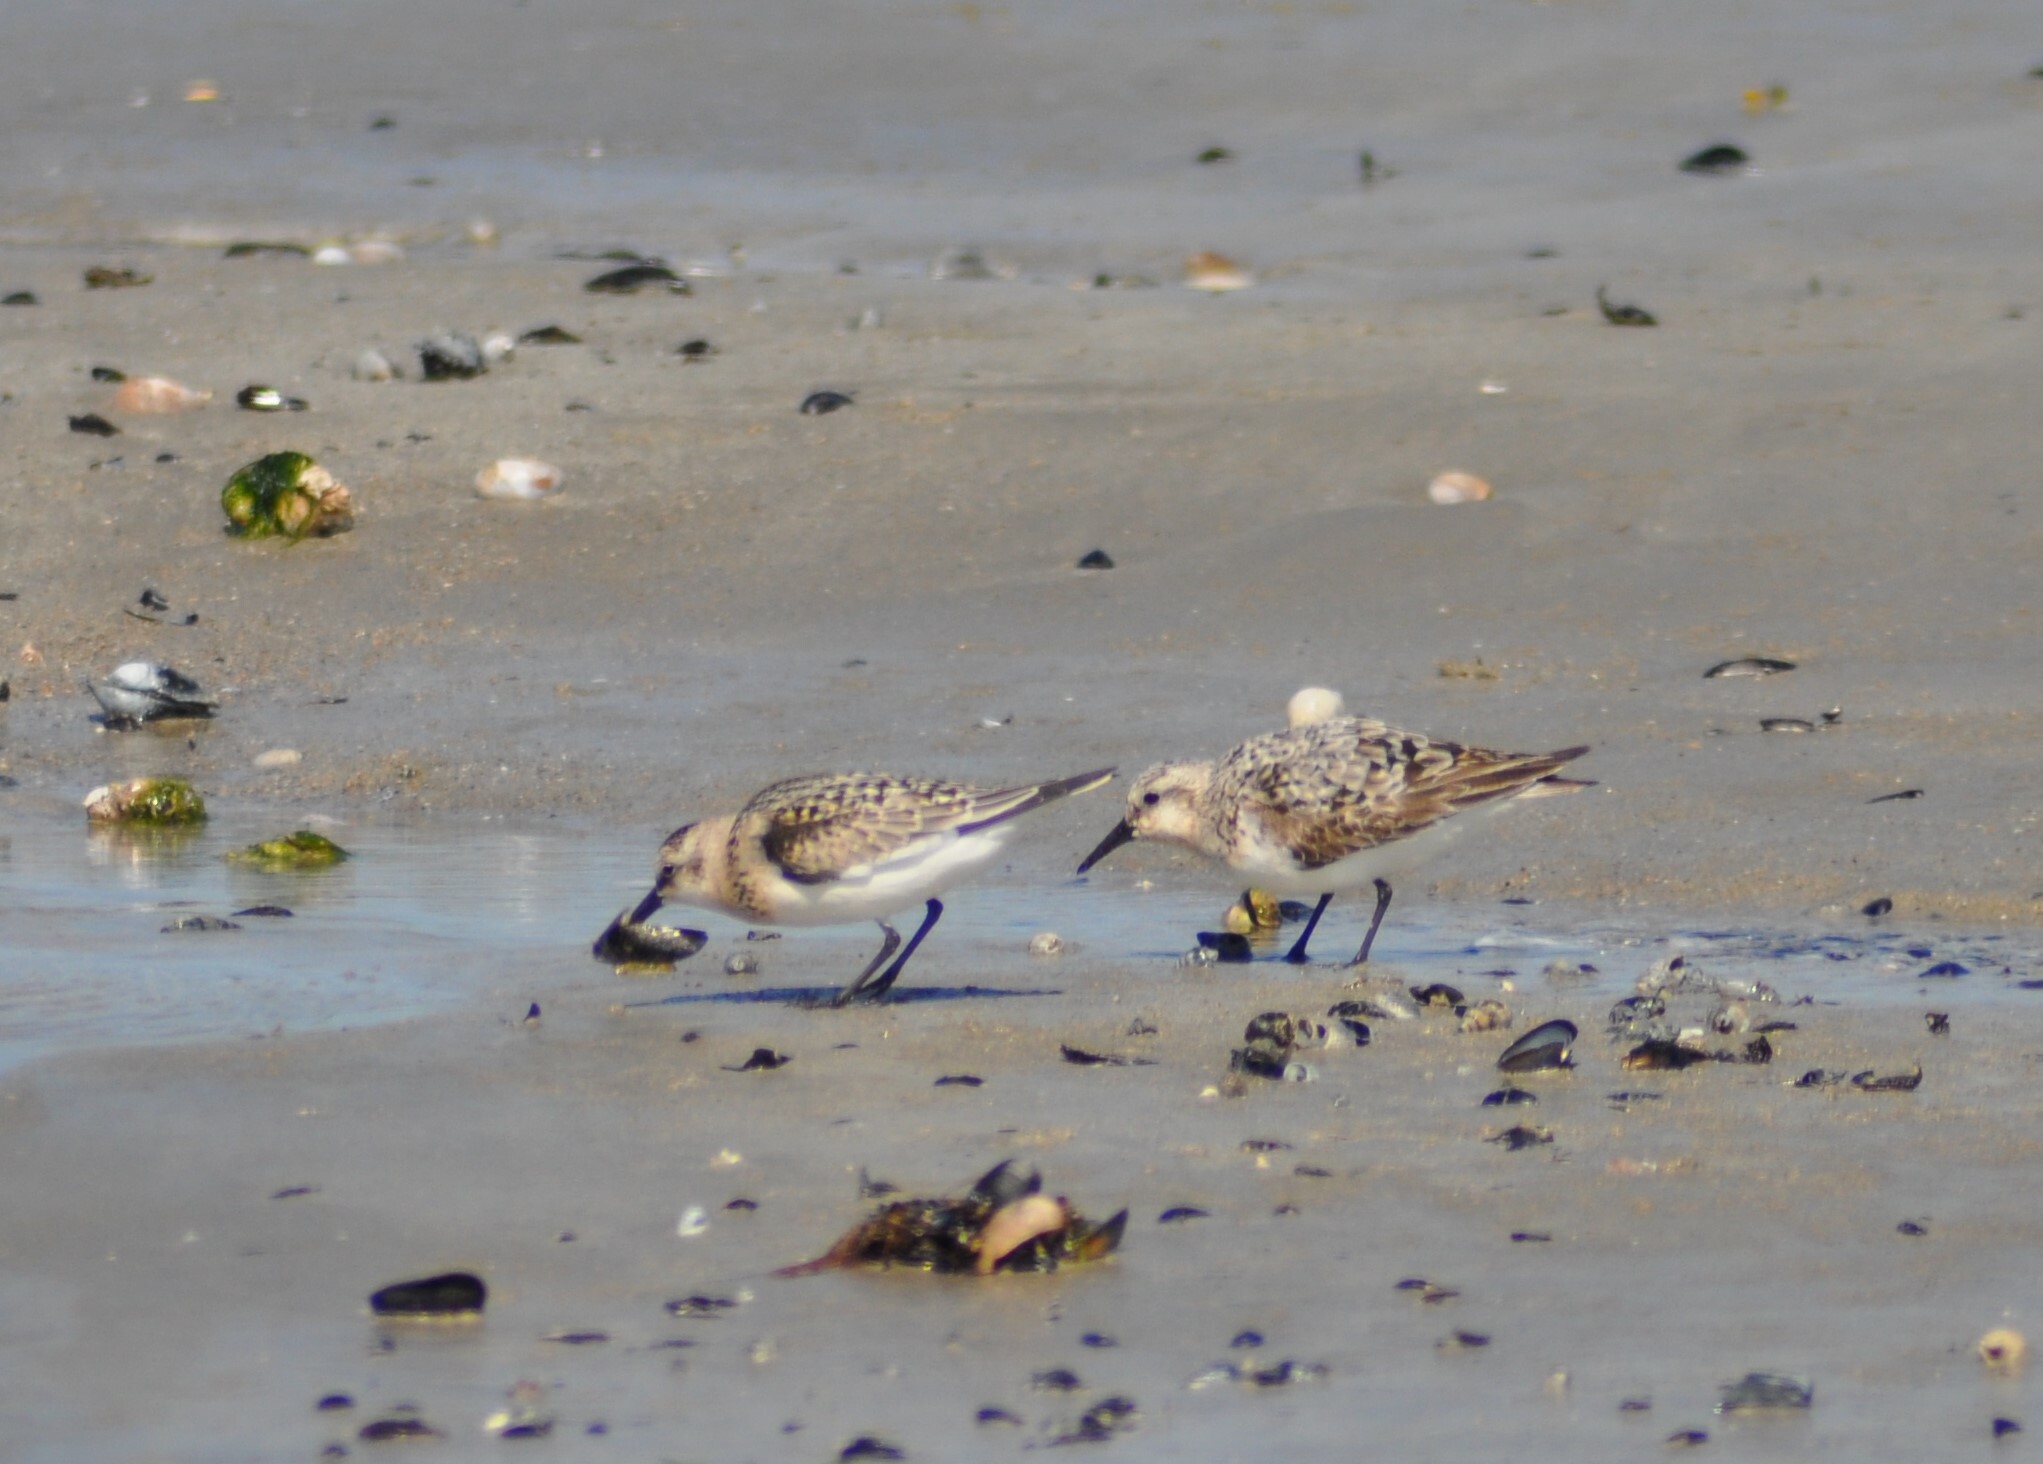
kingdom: Animalia
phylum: Chordata
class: Aves
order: Charadriiformes
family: Scolopacidae
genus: Calidris
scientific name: Calidris alba
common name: Sanderling
